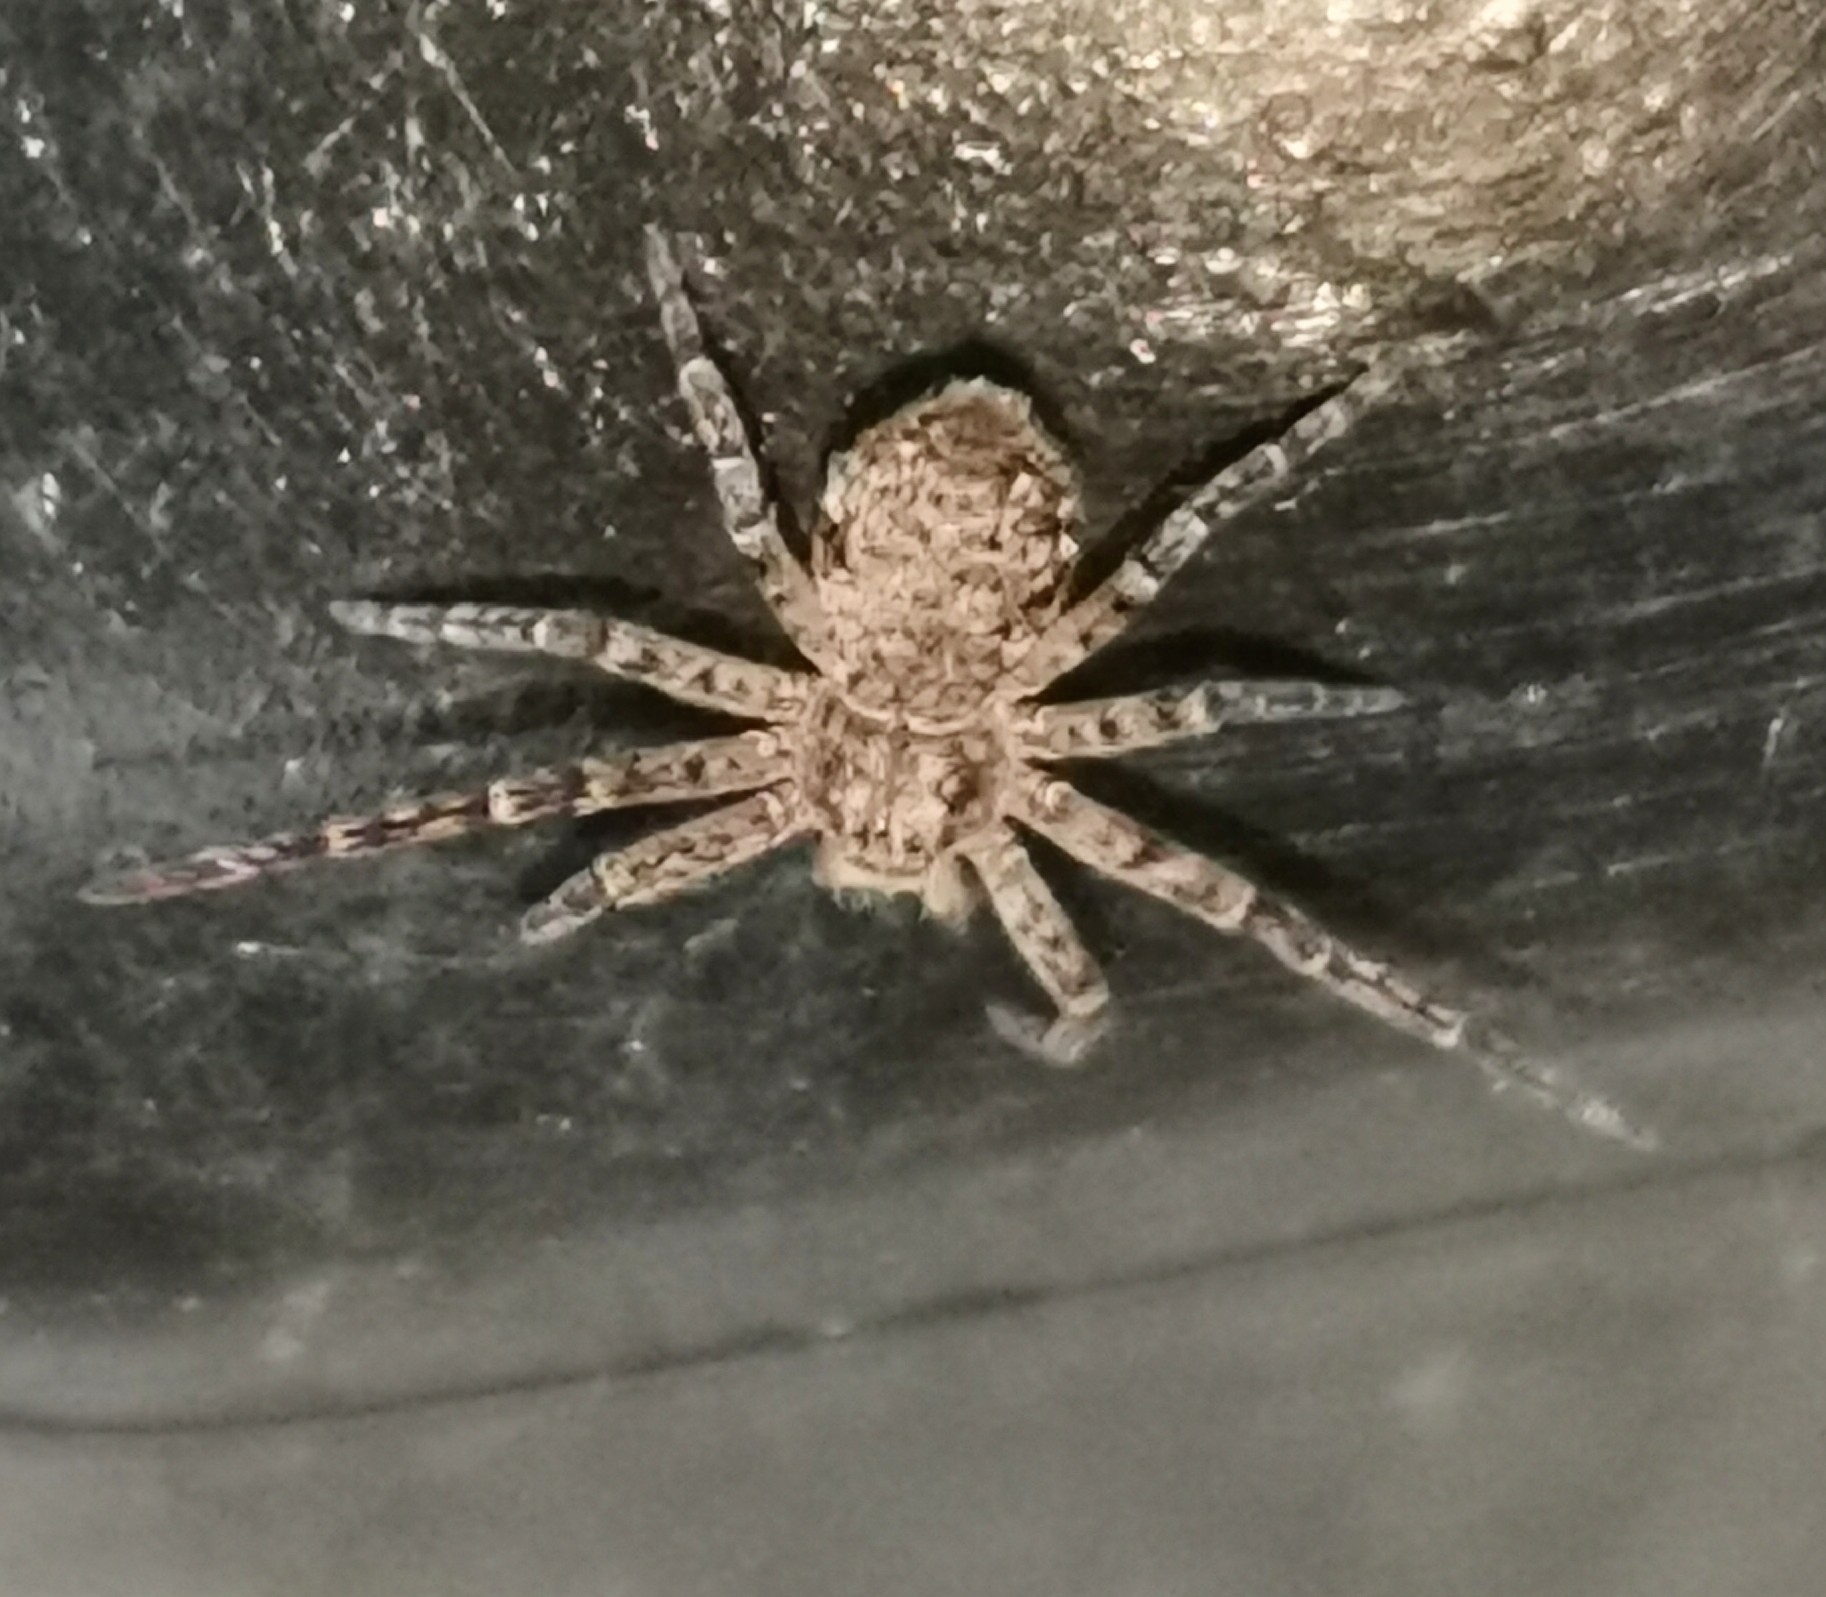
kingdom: Animalia
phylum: Arthropoda
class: Arachnida
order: Araneae
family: Philodromidae
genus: Philodromus
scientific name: Philodromus emarginatus
